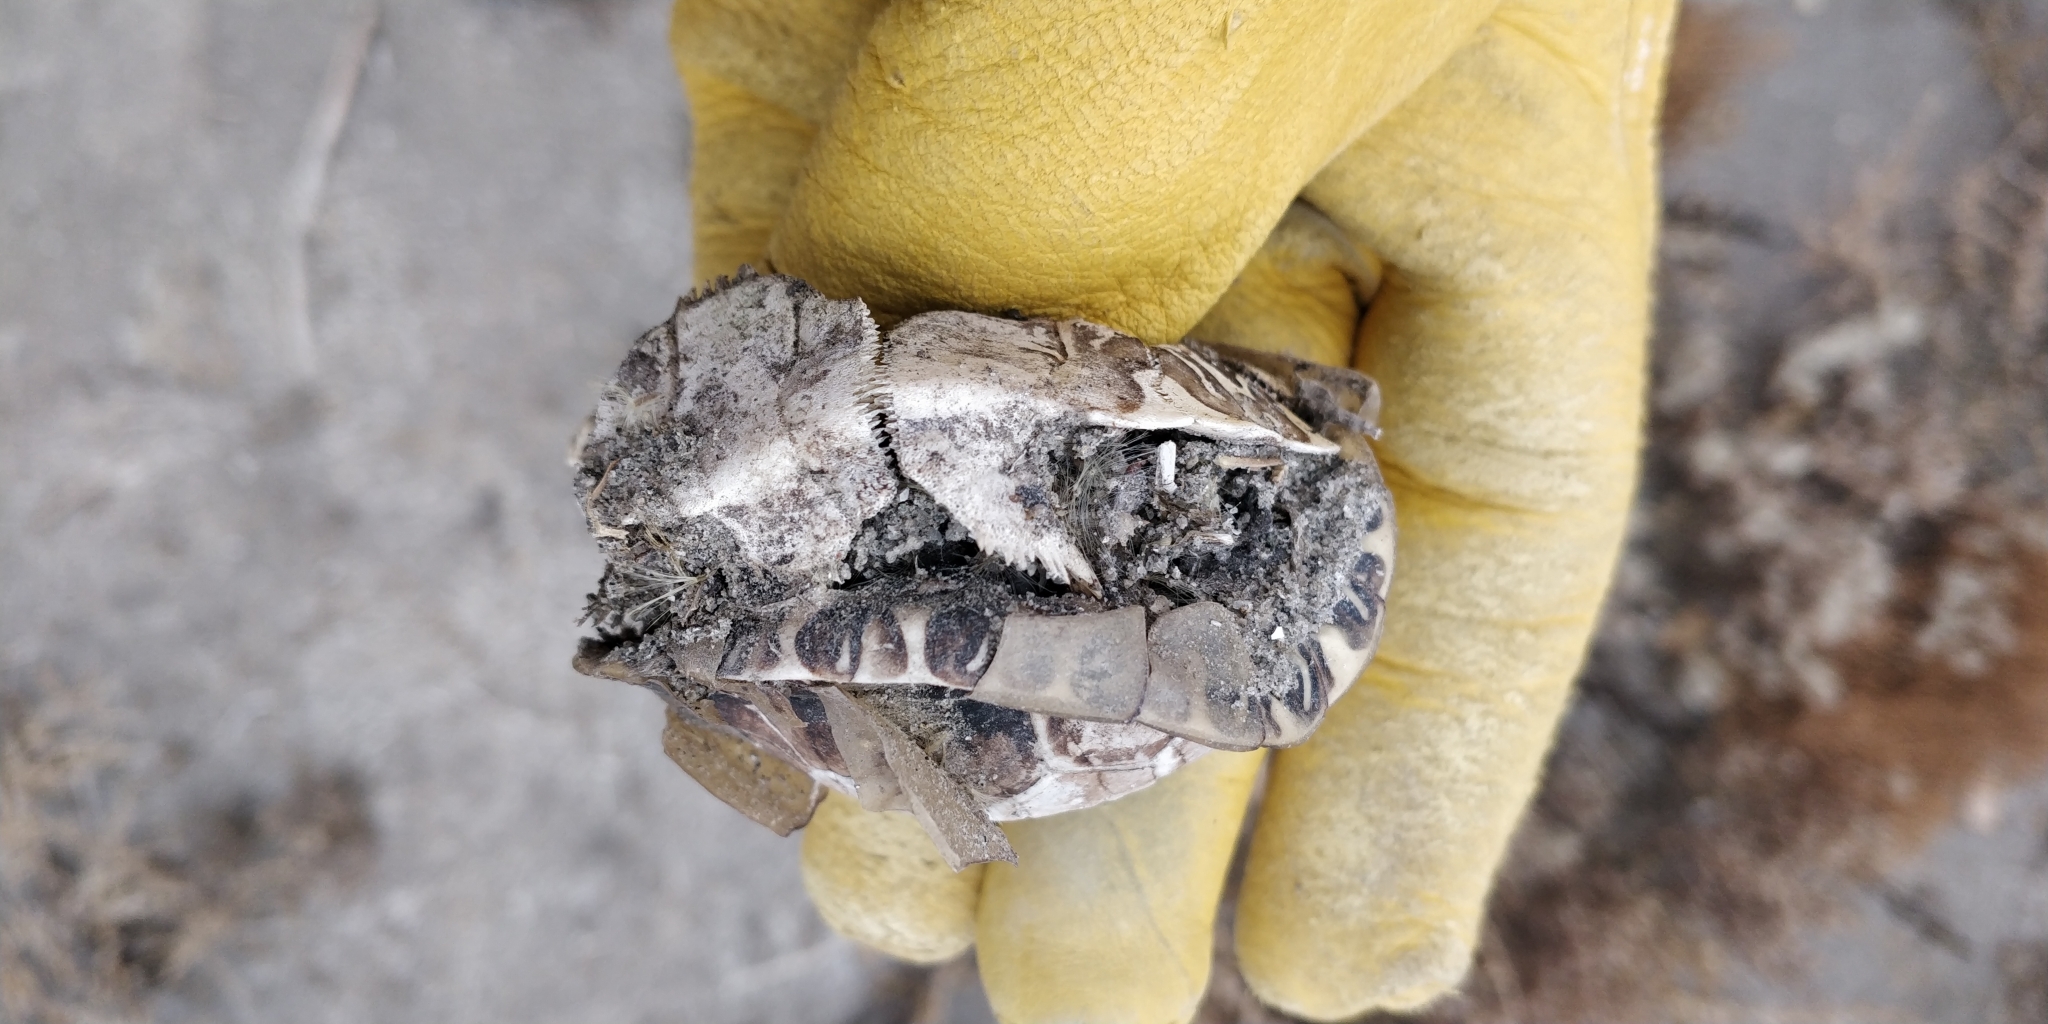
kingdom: Animalia
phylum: Chordata
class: Testudines
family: Emydidae
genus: Chrysemys
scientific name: Chrysemys picta
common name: Painted turtle
